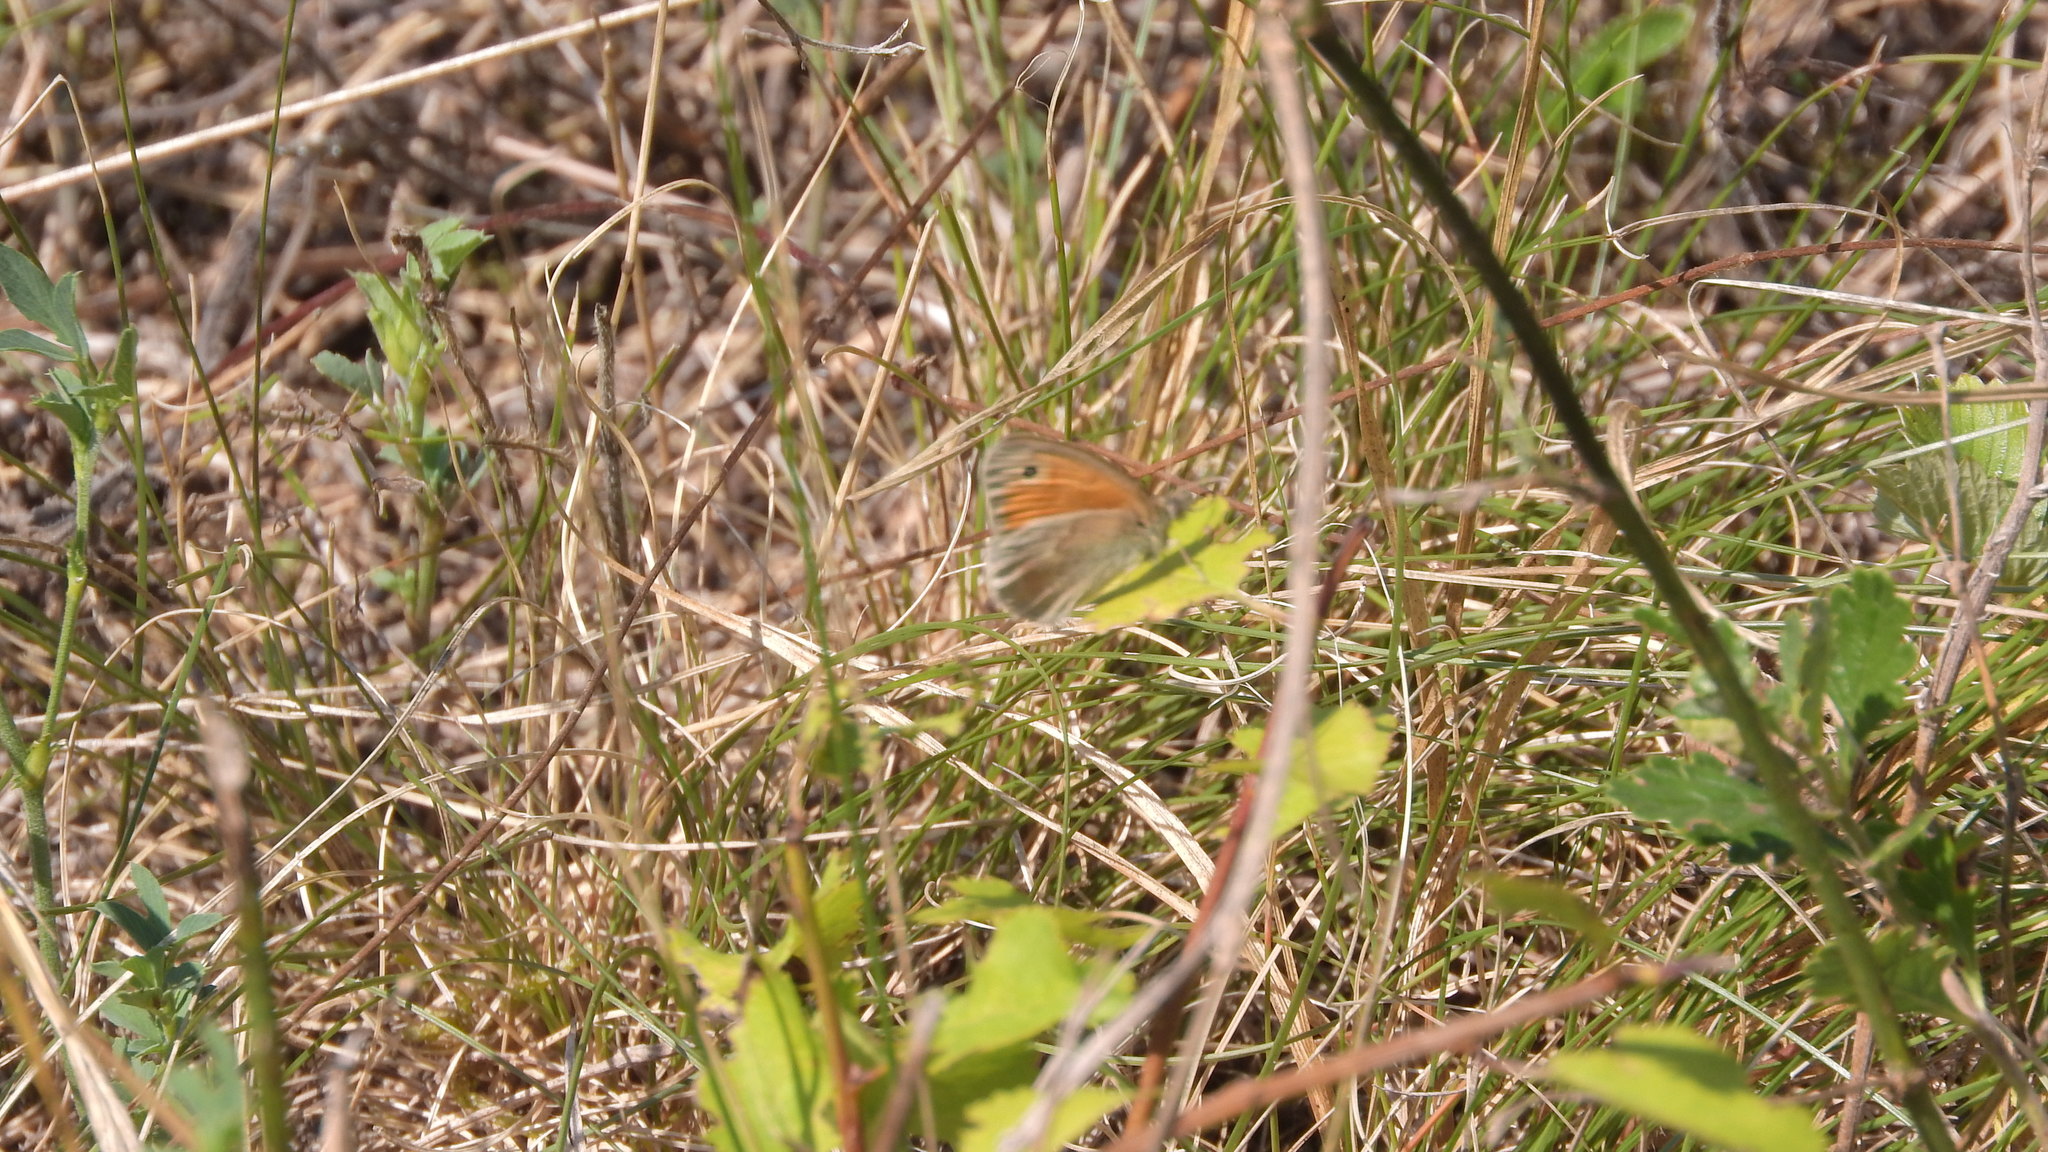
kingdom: Animalia
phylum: Arthropoda
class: Insecta
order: Lepidoptera
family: Nymphalidae
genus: Coenonympha
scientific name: Coenonympha pamphilus
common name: Small heath
